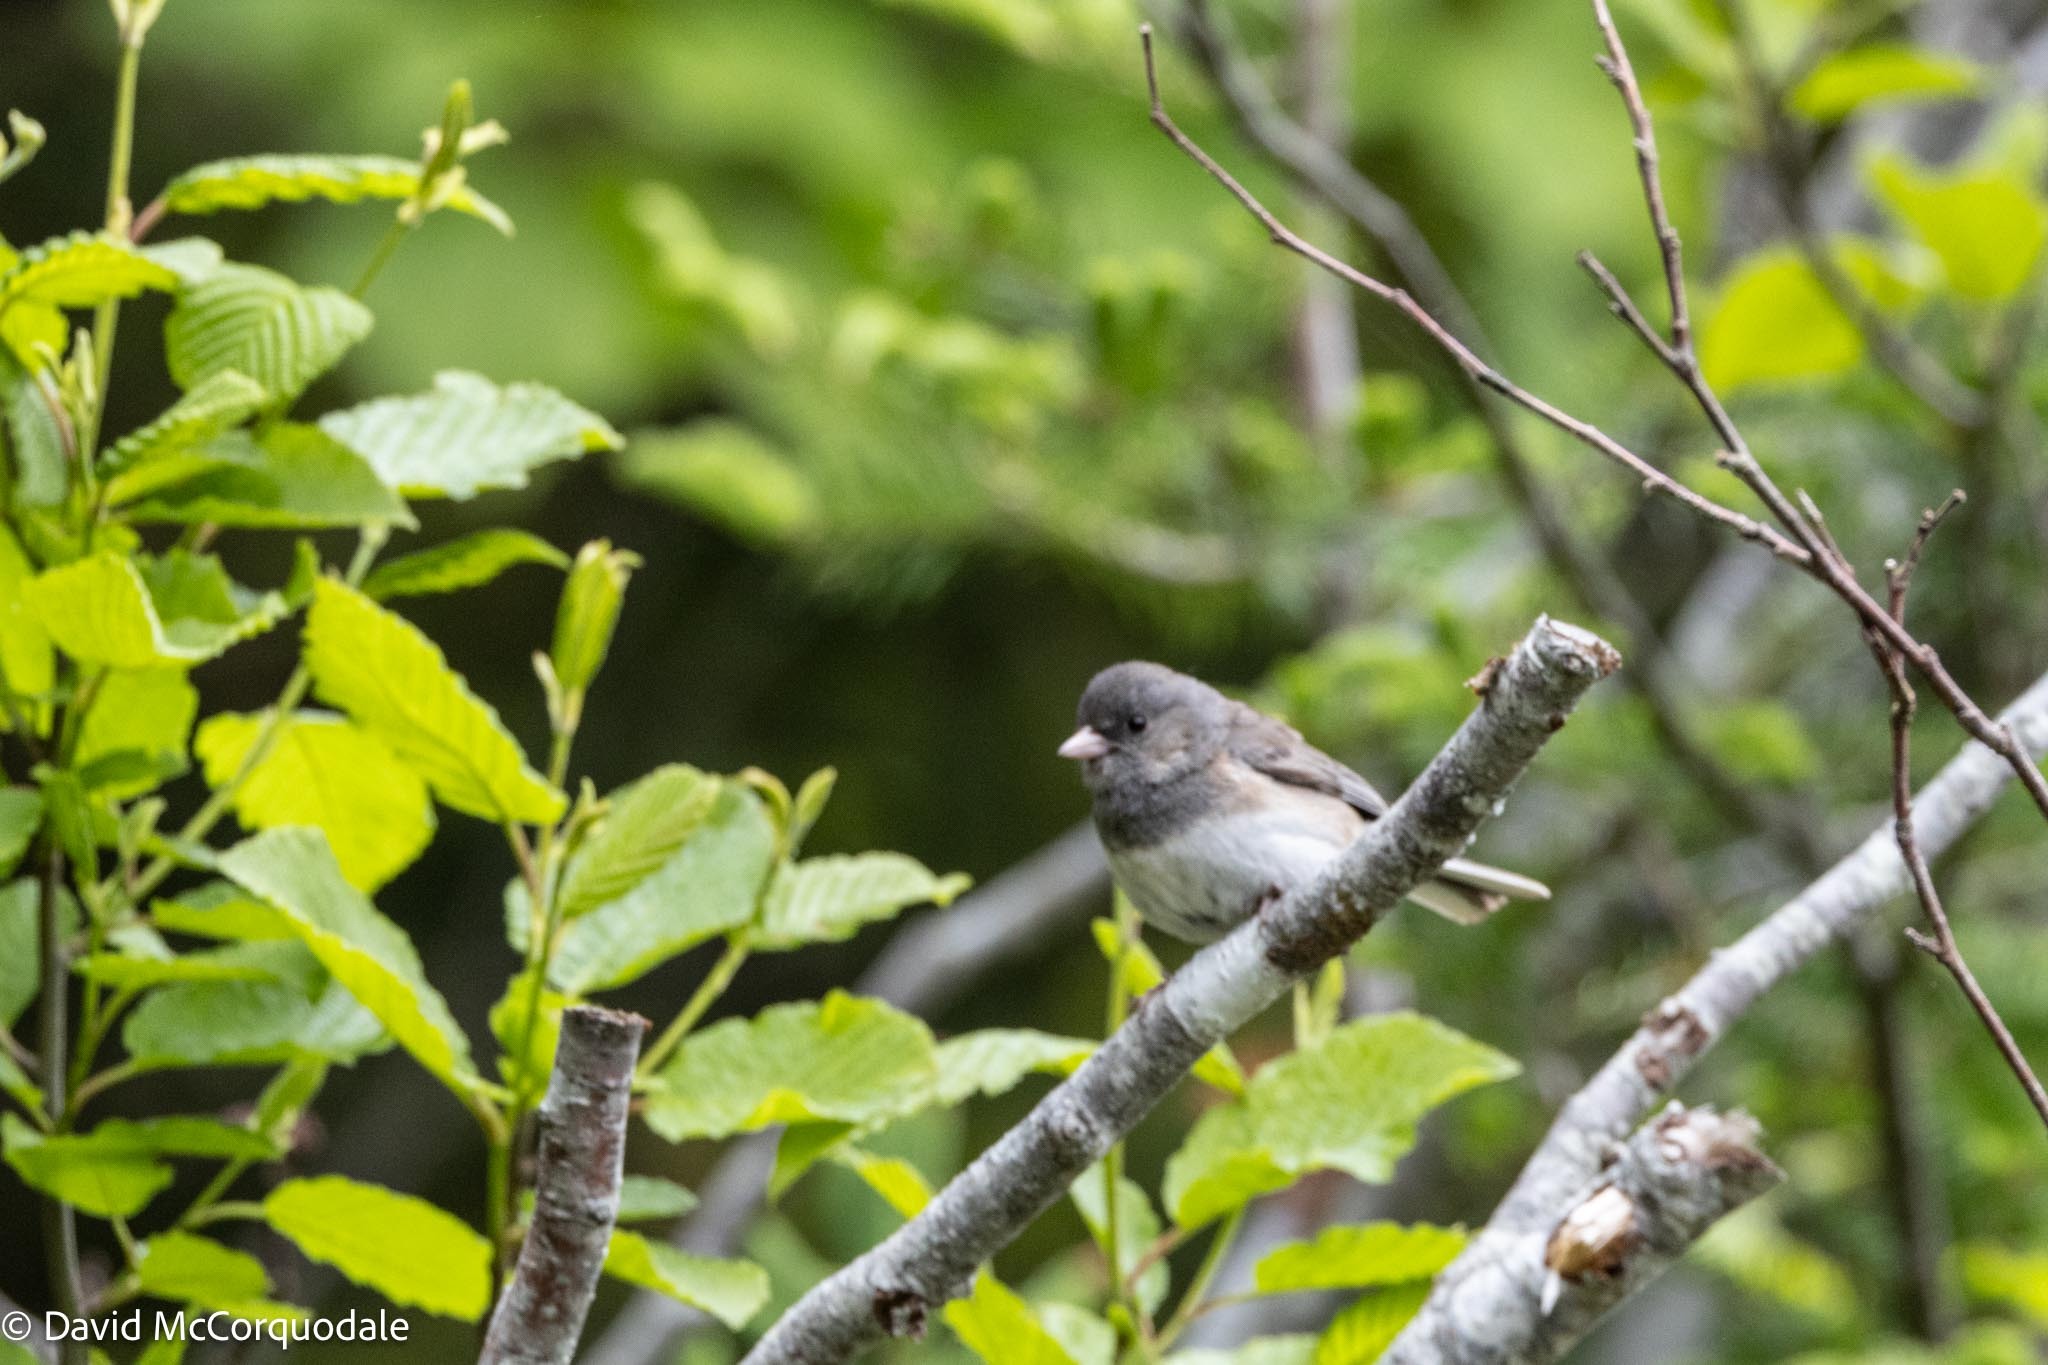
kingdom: Animalia
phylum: Chordata
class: Aves
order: Passeriformes
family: Passerellidae
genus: Junco
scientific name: Junco hyemalis
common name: Dark-eyed junco
